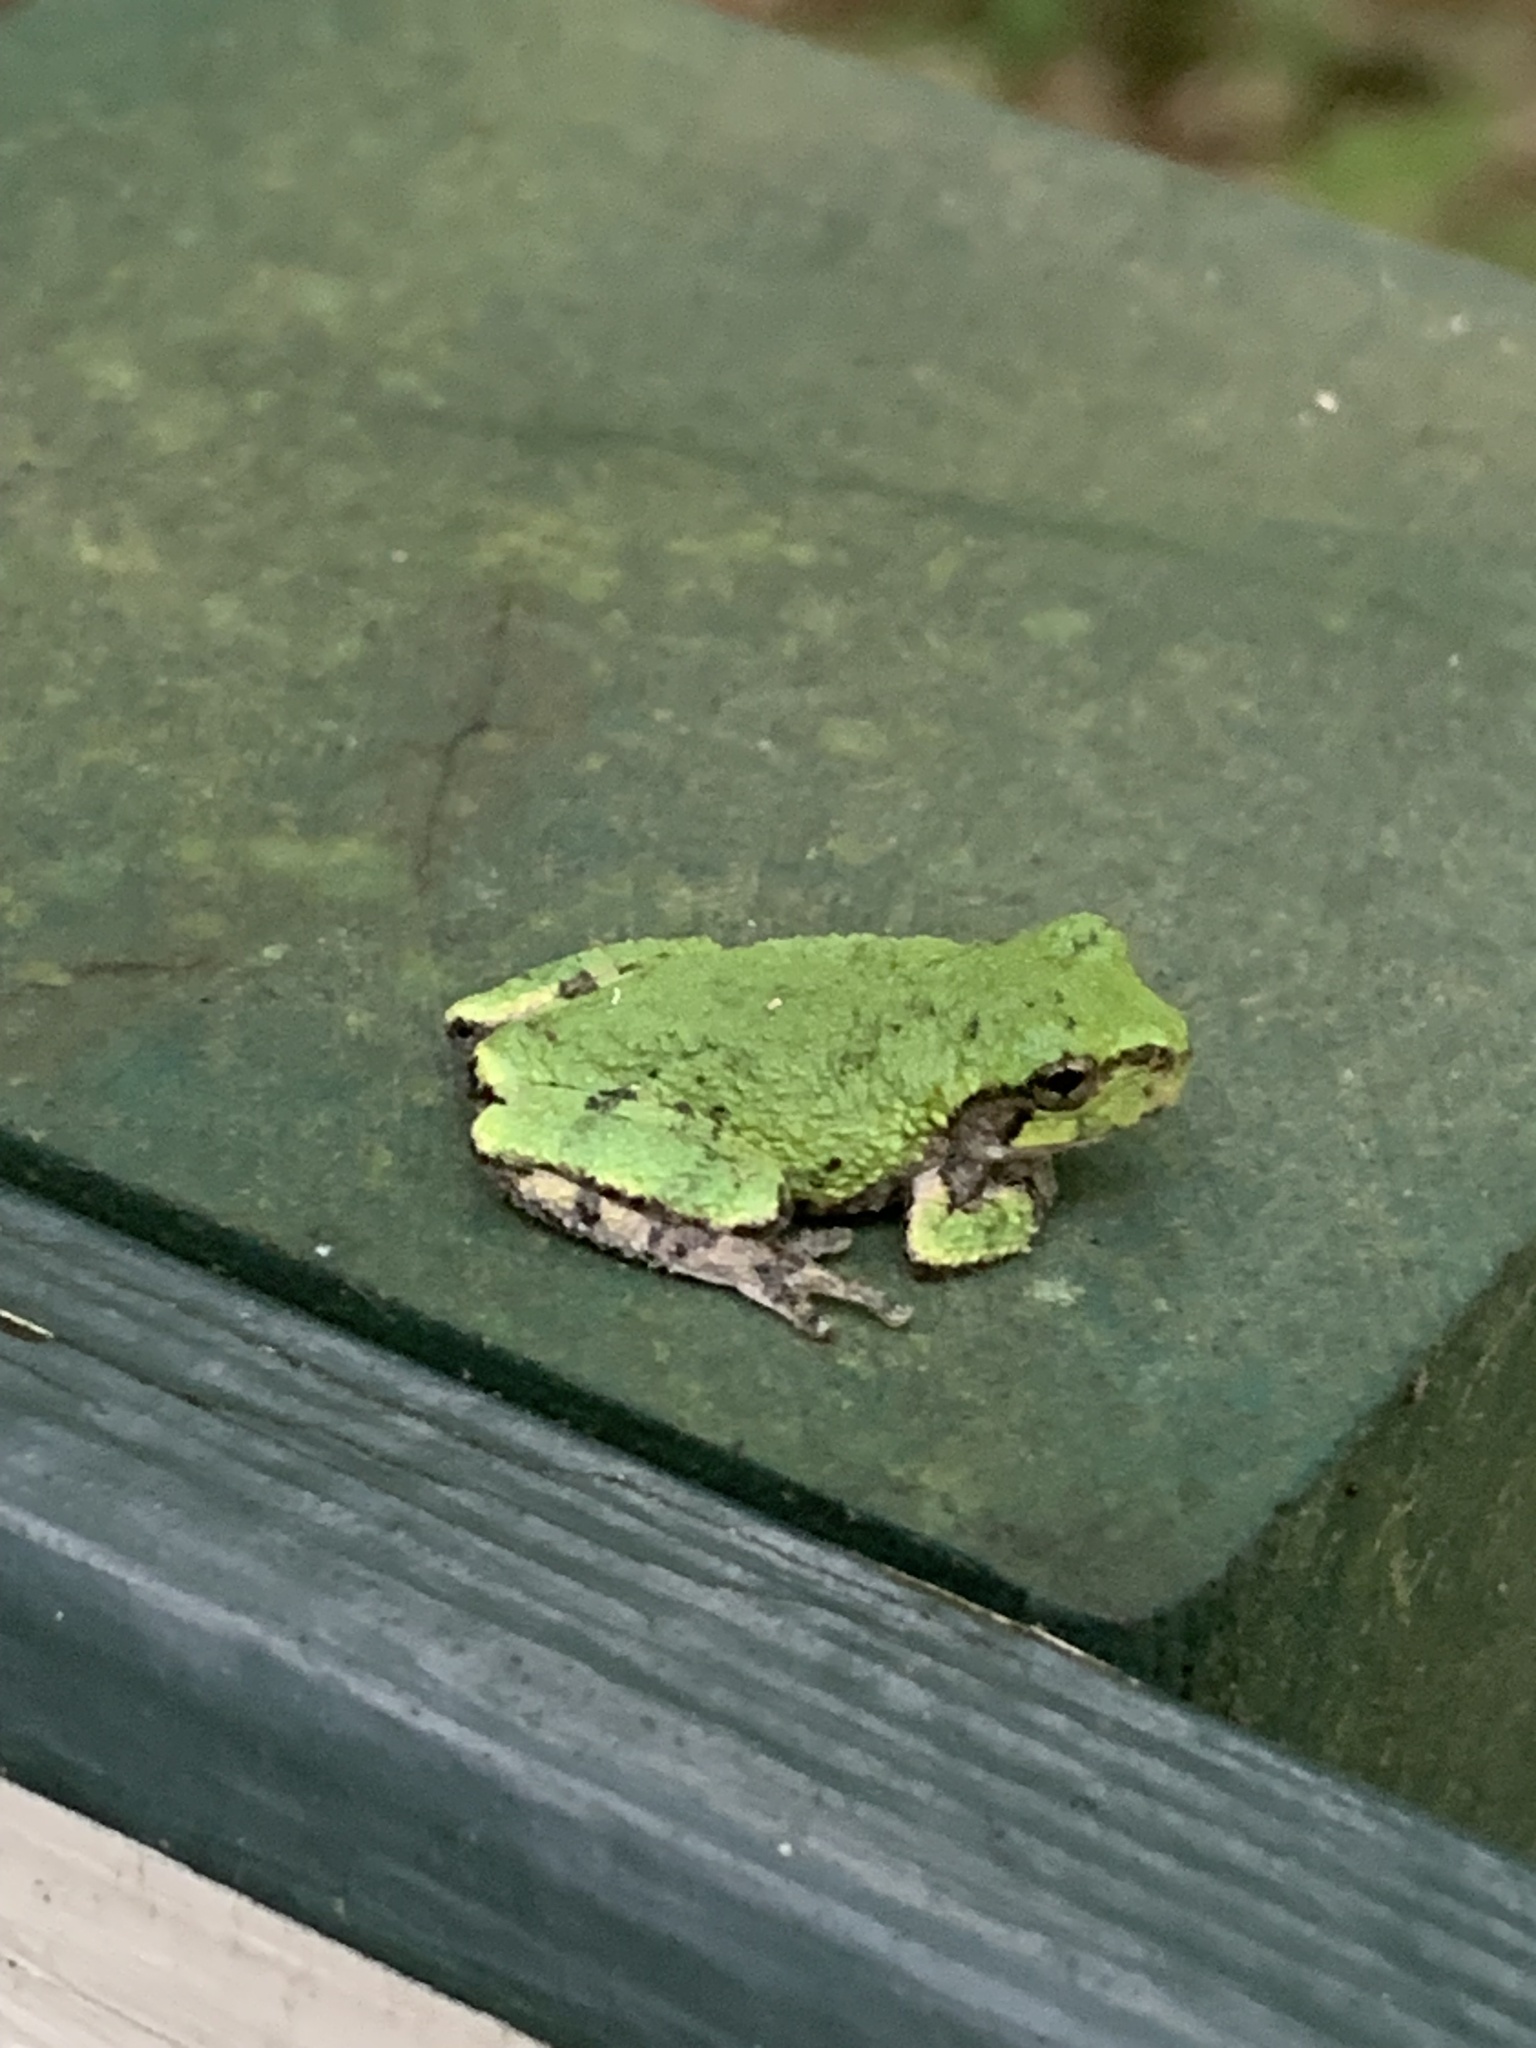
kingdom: Animalia
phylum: Chordata
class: Amphibia
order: Anura
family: Hylidae
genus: Dryophytes
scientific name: Dryophytes versicolor
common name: Gray treefrog
